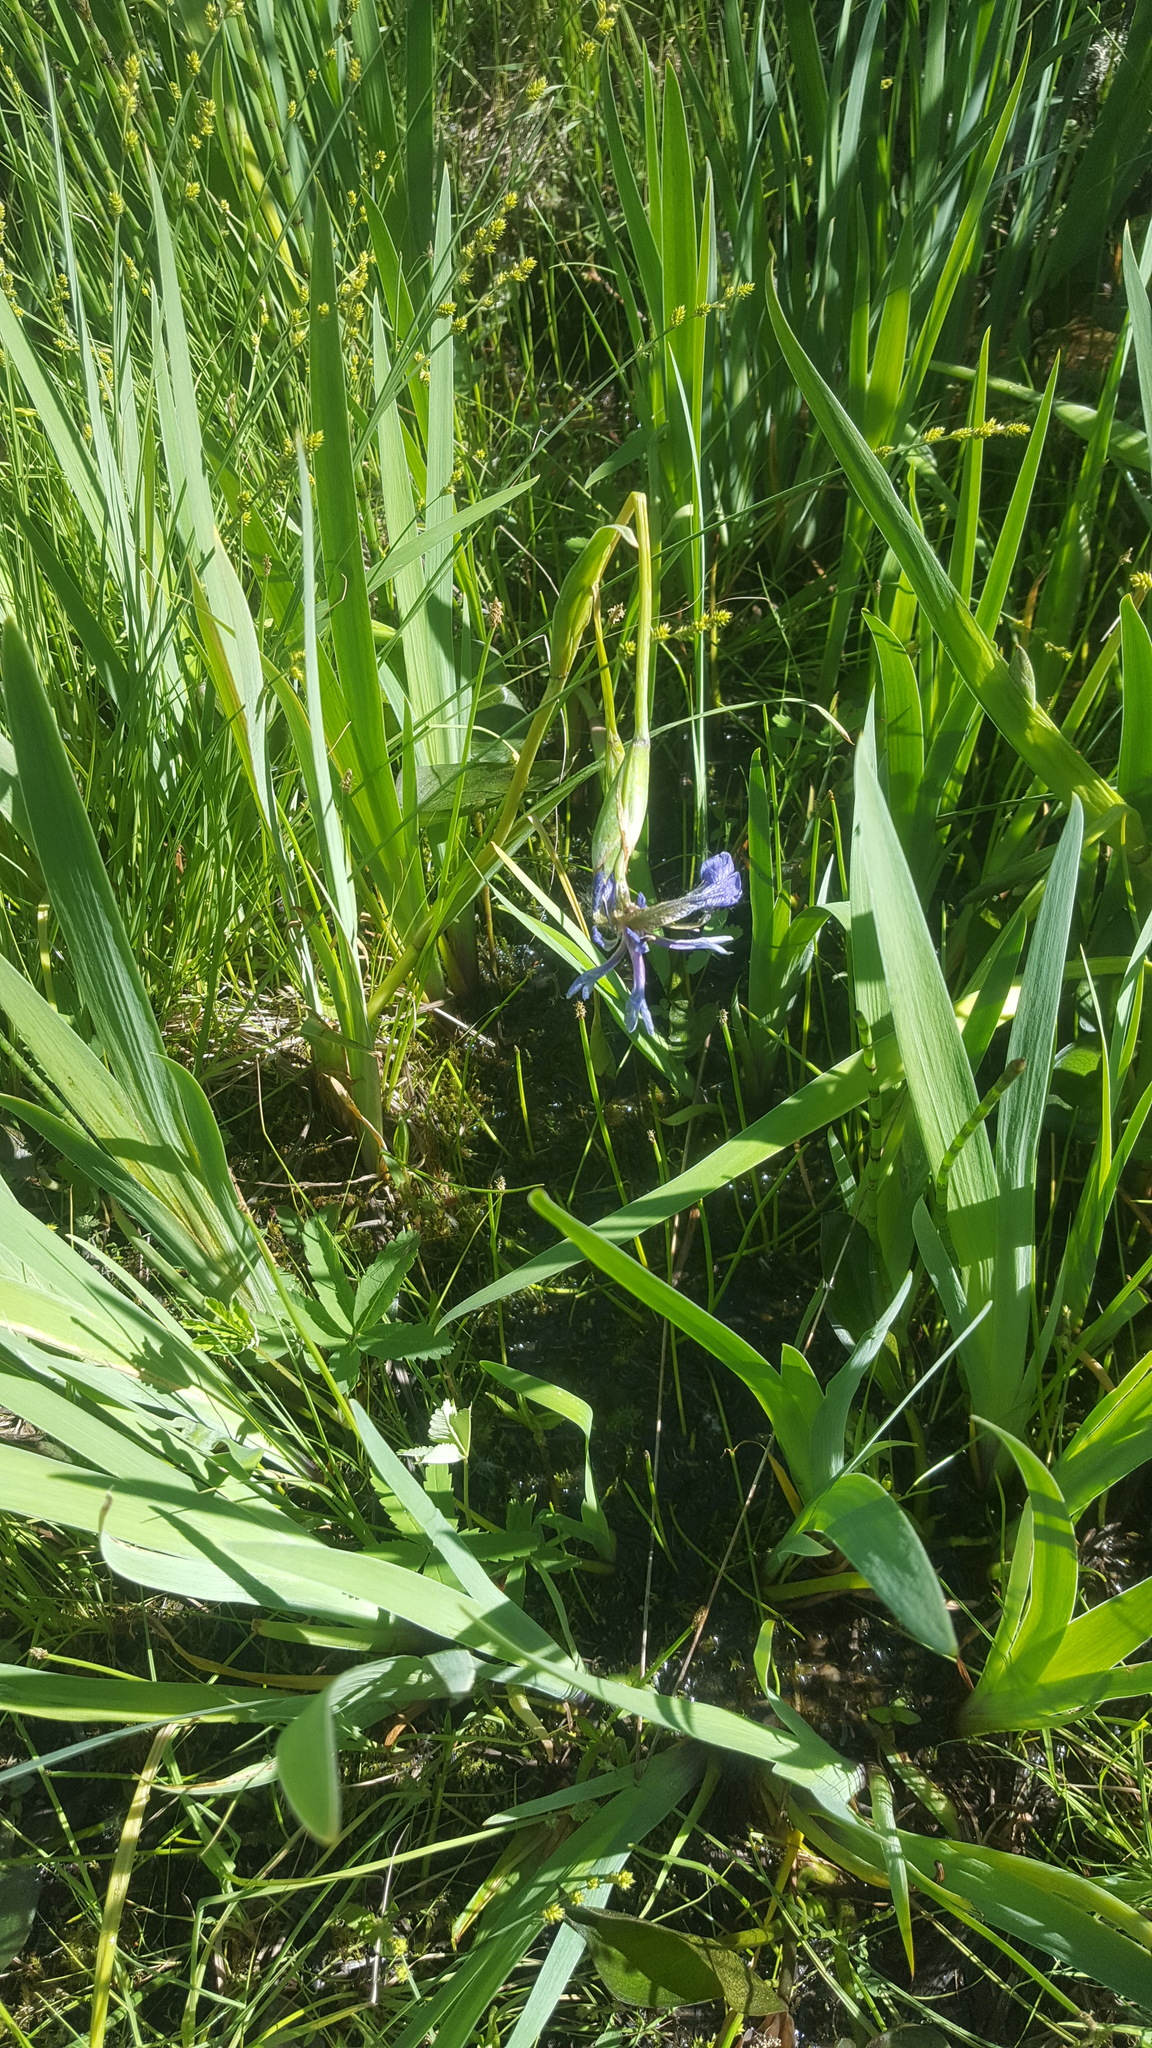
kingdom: Plantae
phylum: Tracheophyta
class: Liliopsida
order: Asparagales
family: Iridaceae
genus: Iris
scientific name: Iris versicolor
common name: Purple iris
